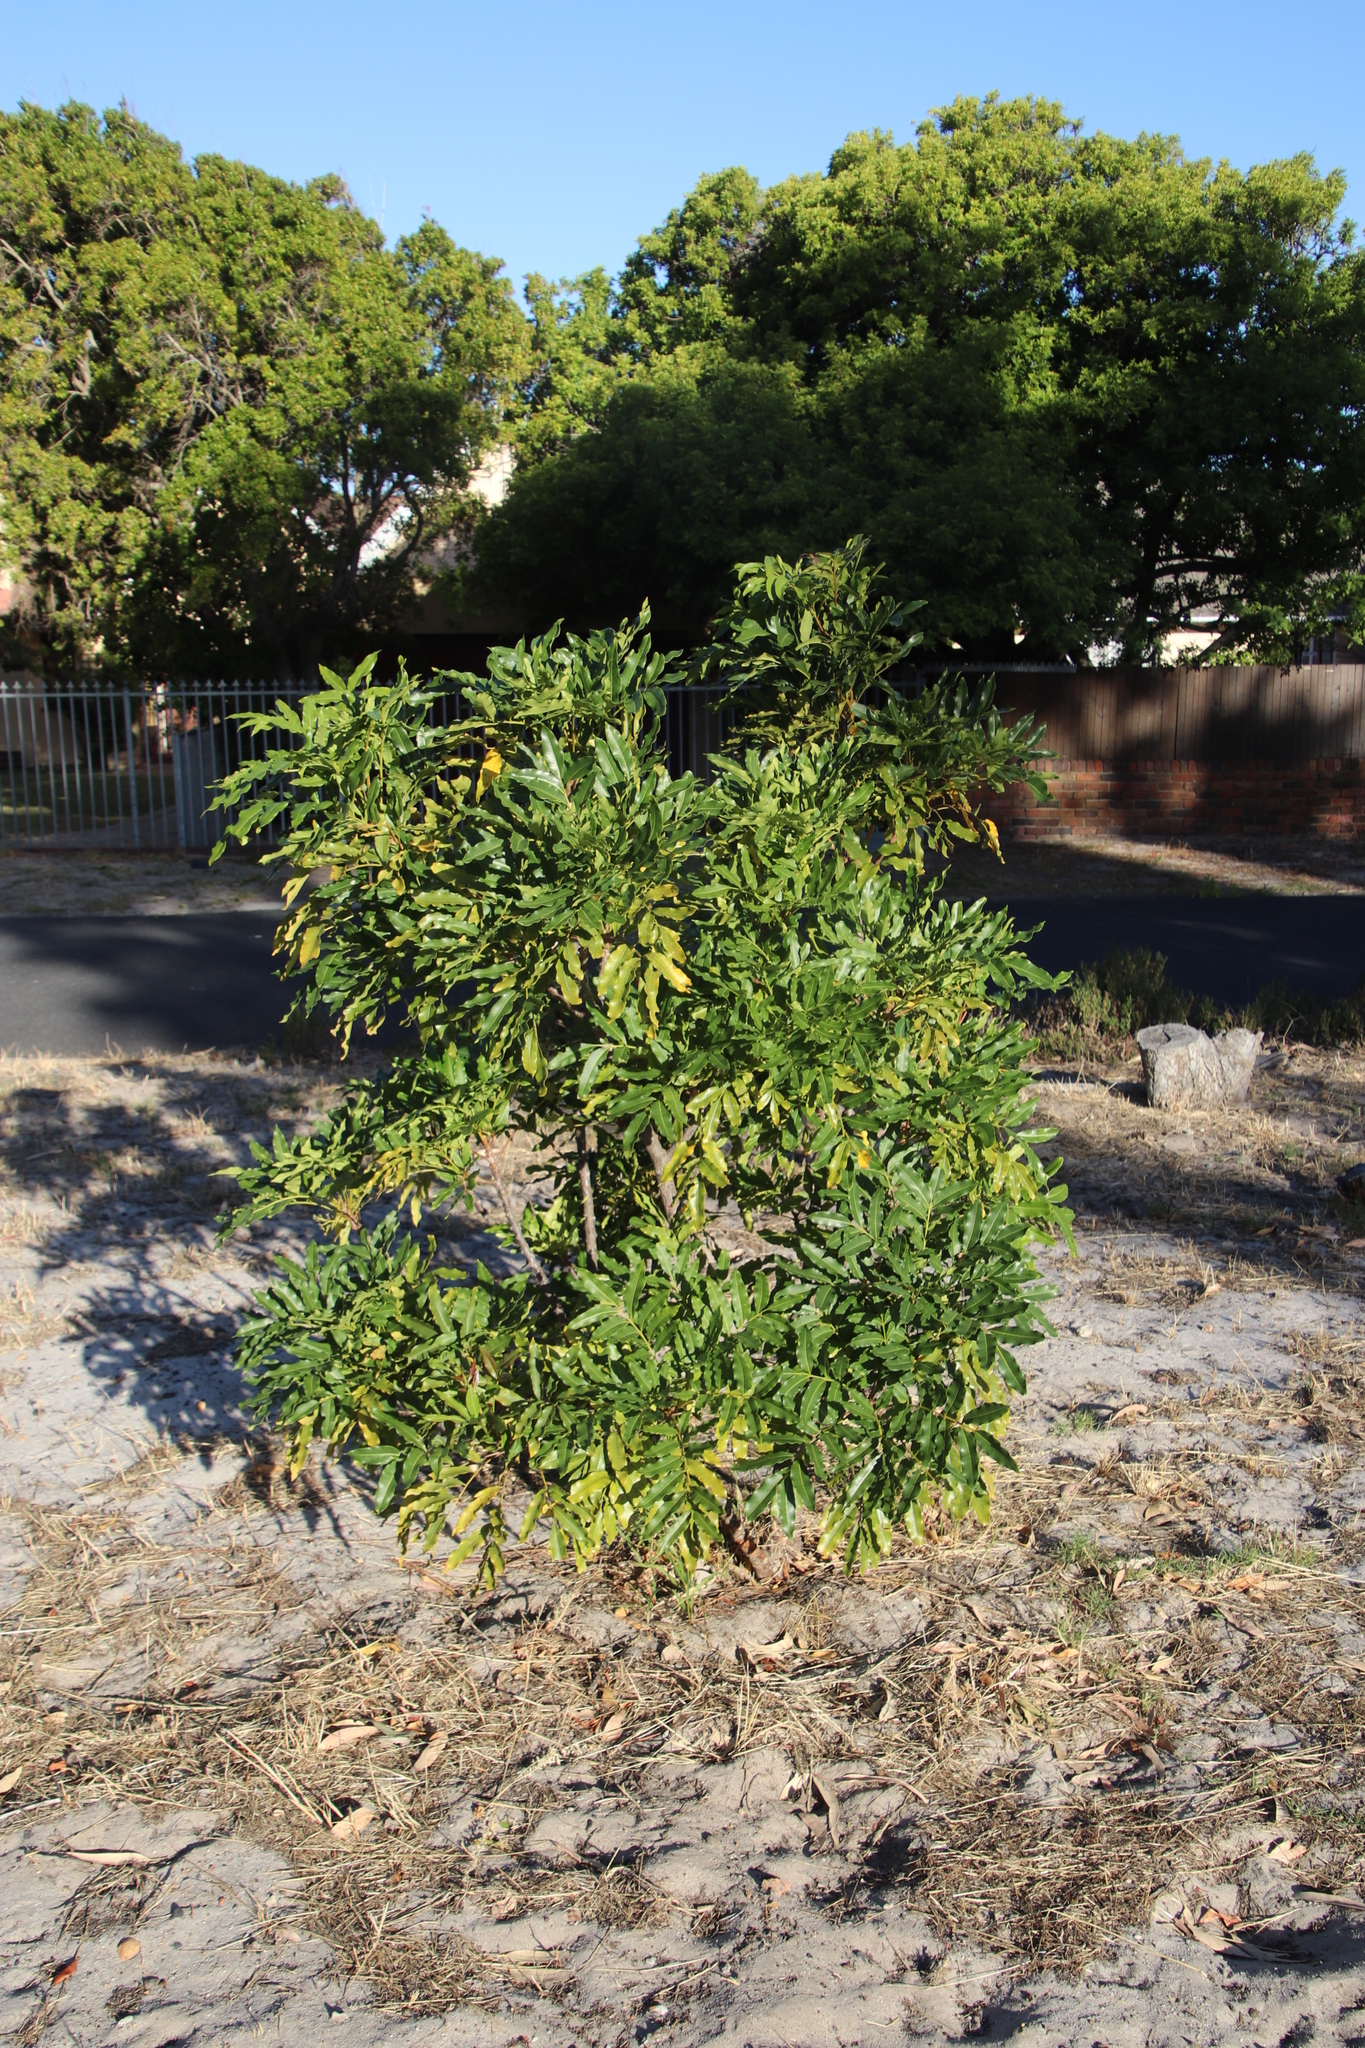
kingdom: Plantae
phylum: Tracheophyta
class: Magnoliopsida
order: Sapindales
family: Meliaceae
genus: Ekebergia
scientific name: Ekebergia capensis
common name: Cape-ash
